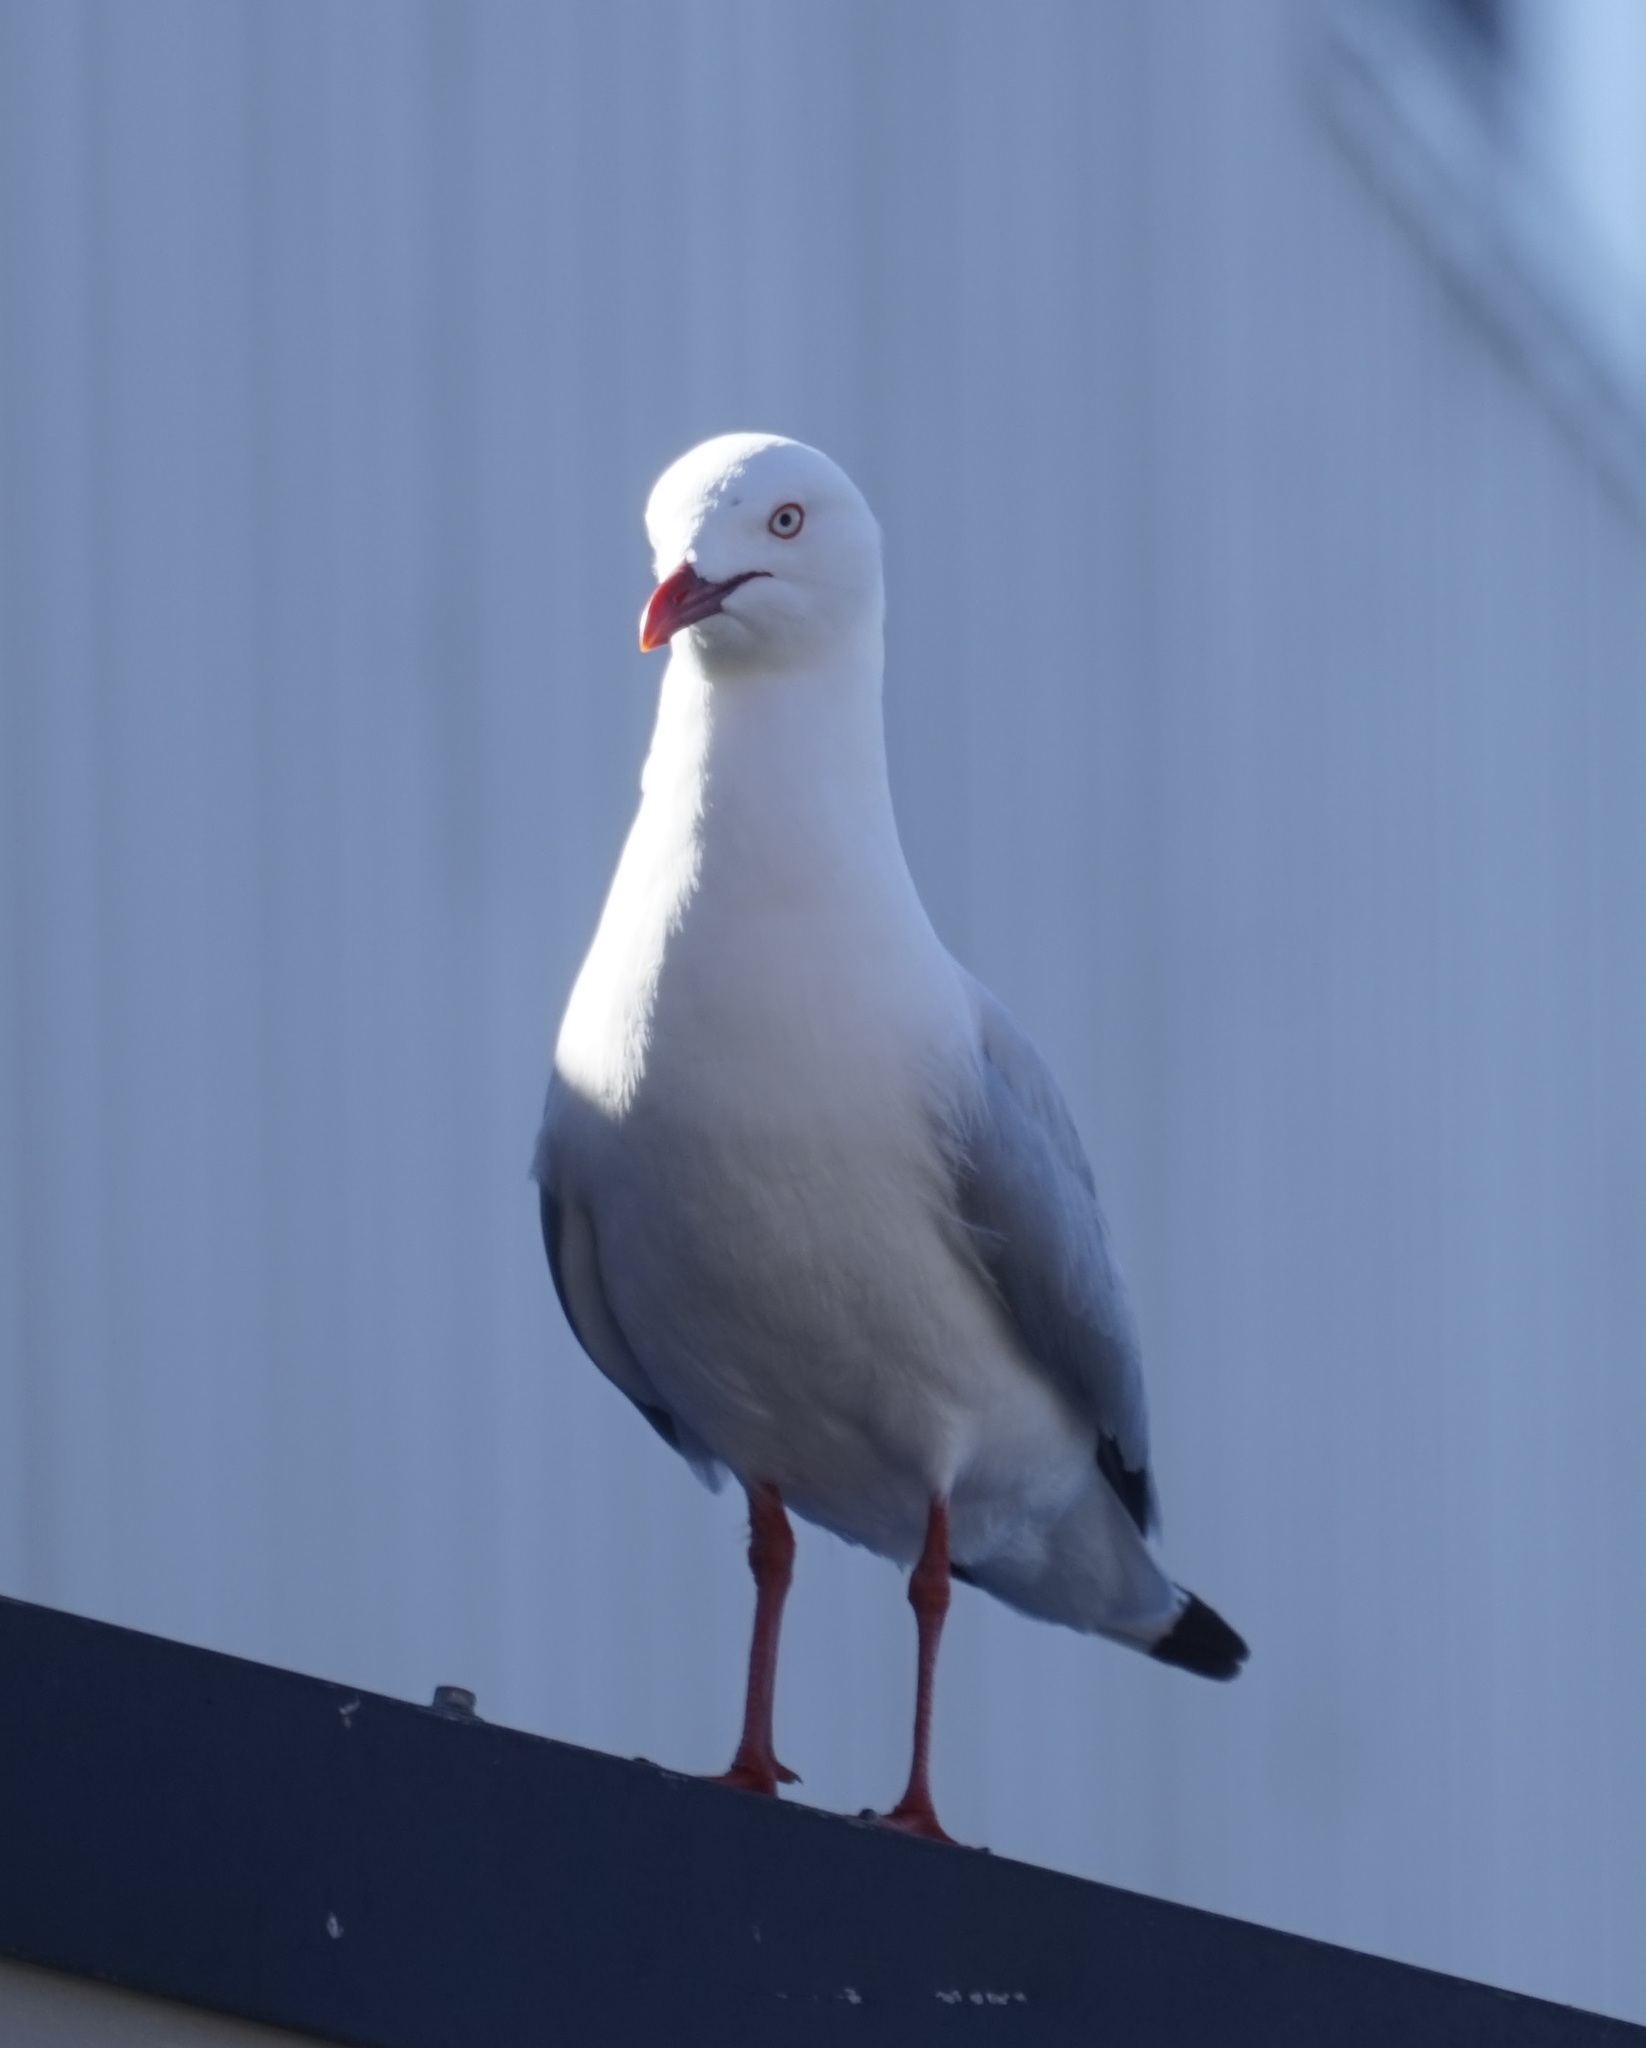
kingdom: Animalia
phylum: Chordata
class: Aves
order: Charadriiformes
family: Laridae
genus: Chroicocephalus
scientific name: Chroicocephalus novaehollandiae
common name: Silver gull
